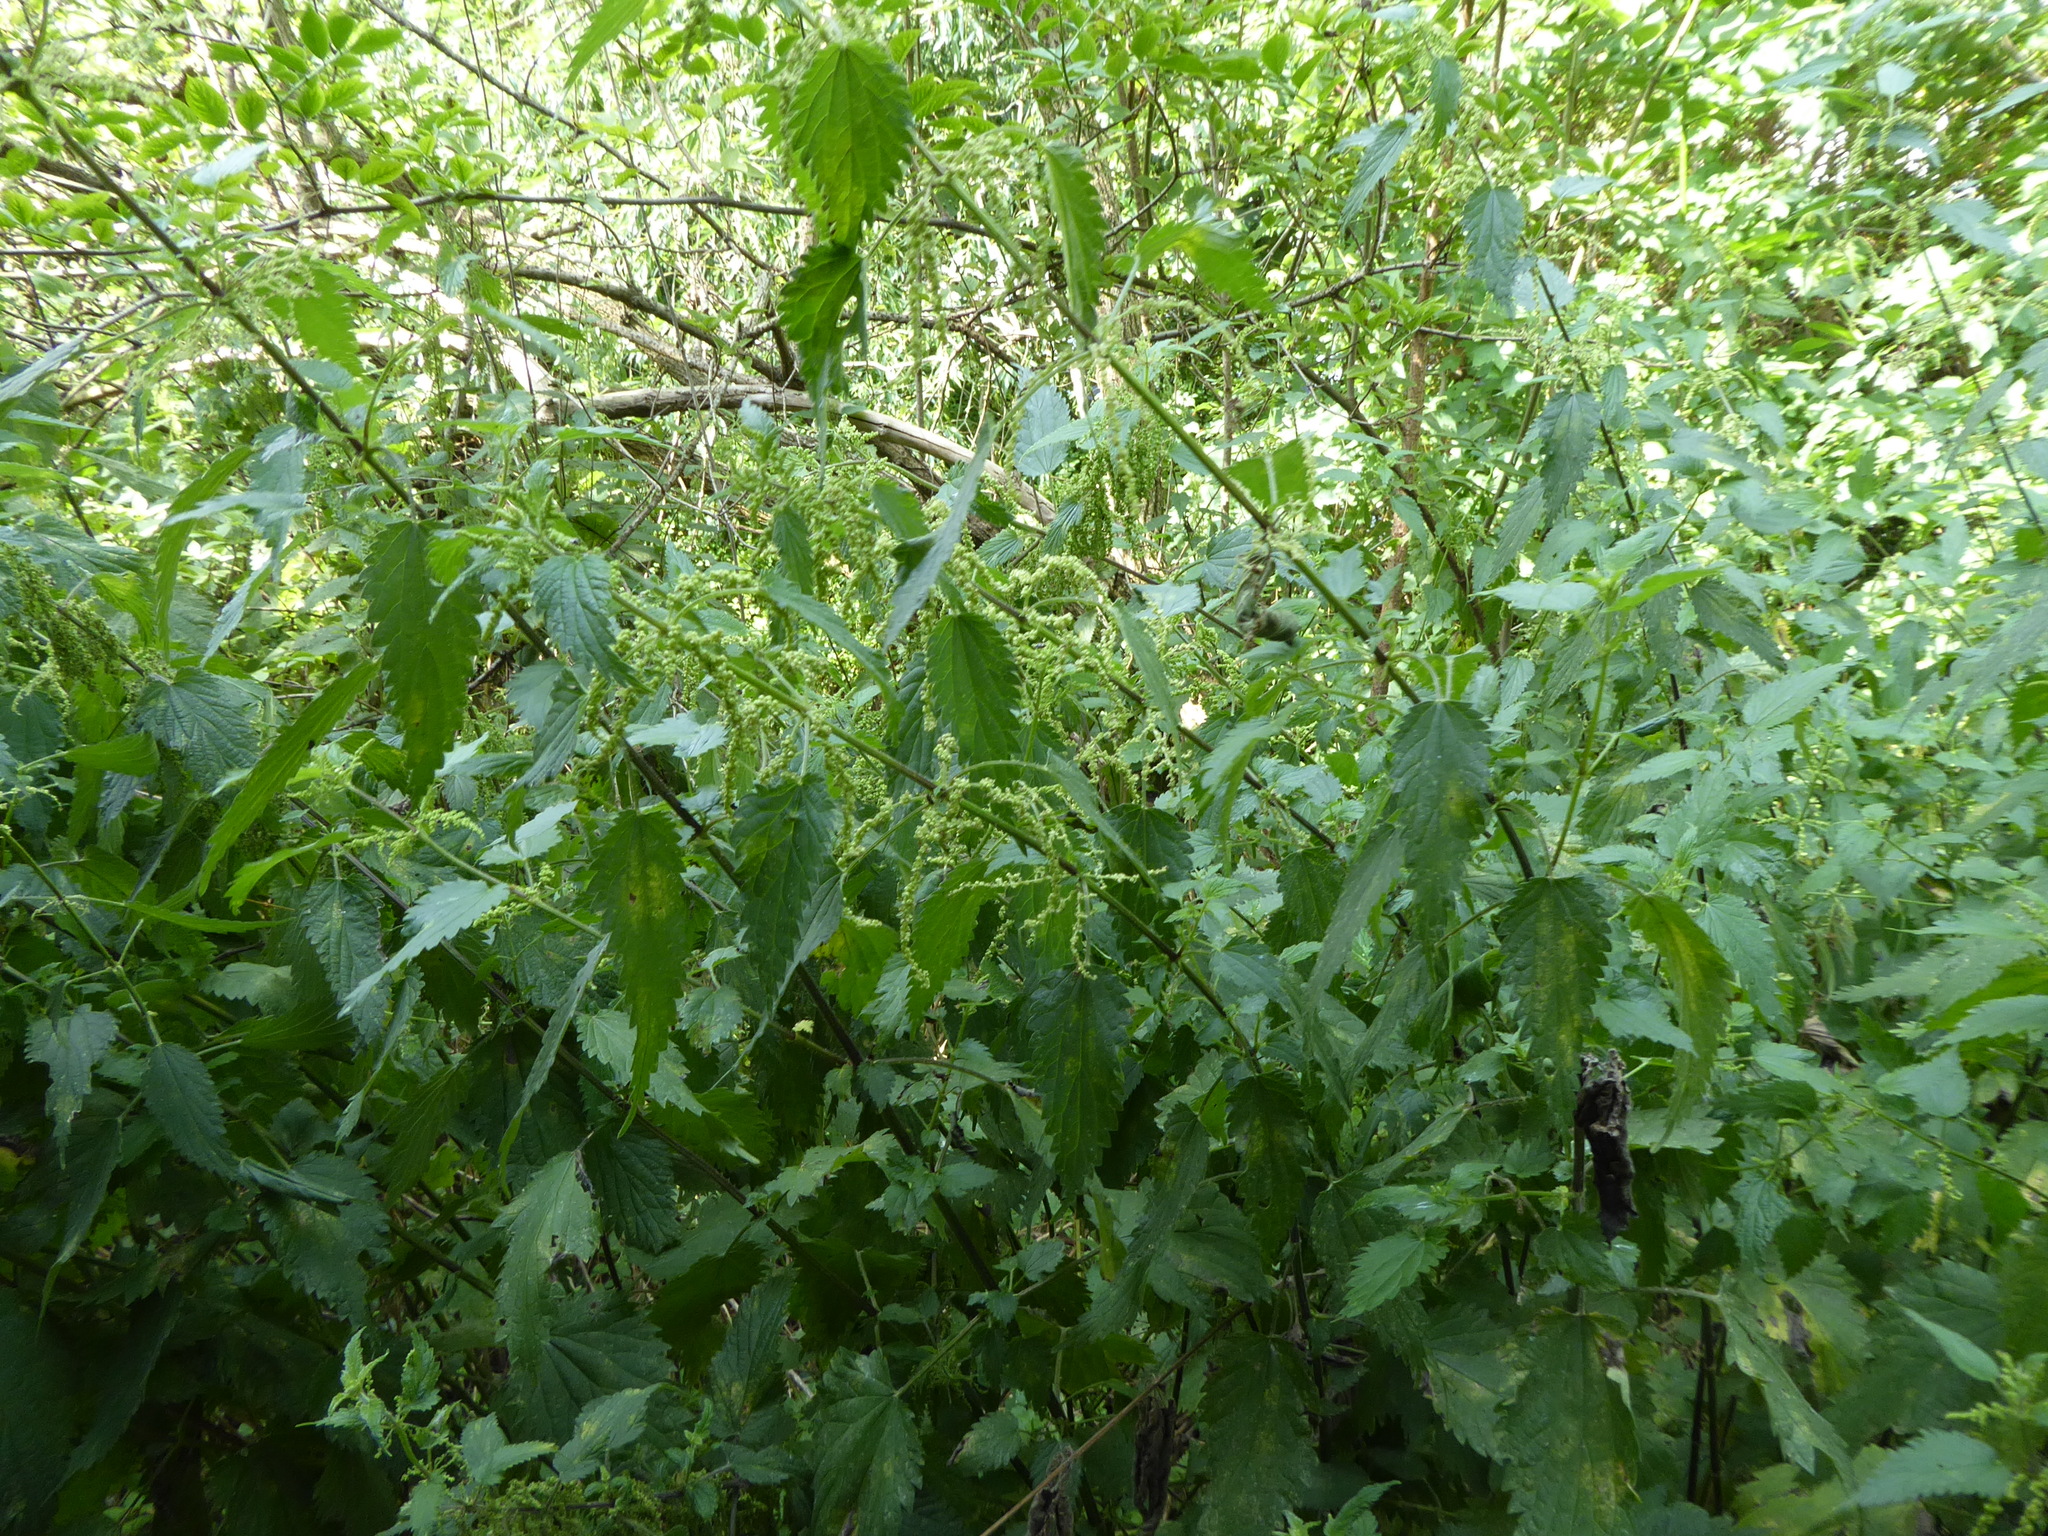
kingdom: Plantae
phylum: Tracheophyta
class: Magnoliopsida
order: Rosales
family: Urticaceae
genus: Urtica
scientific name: Urtica dioica
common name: Common nettle
